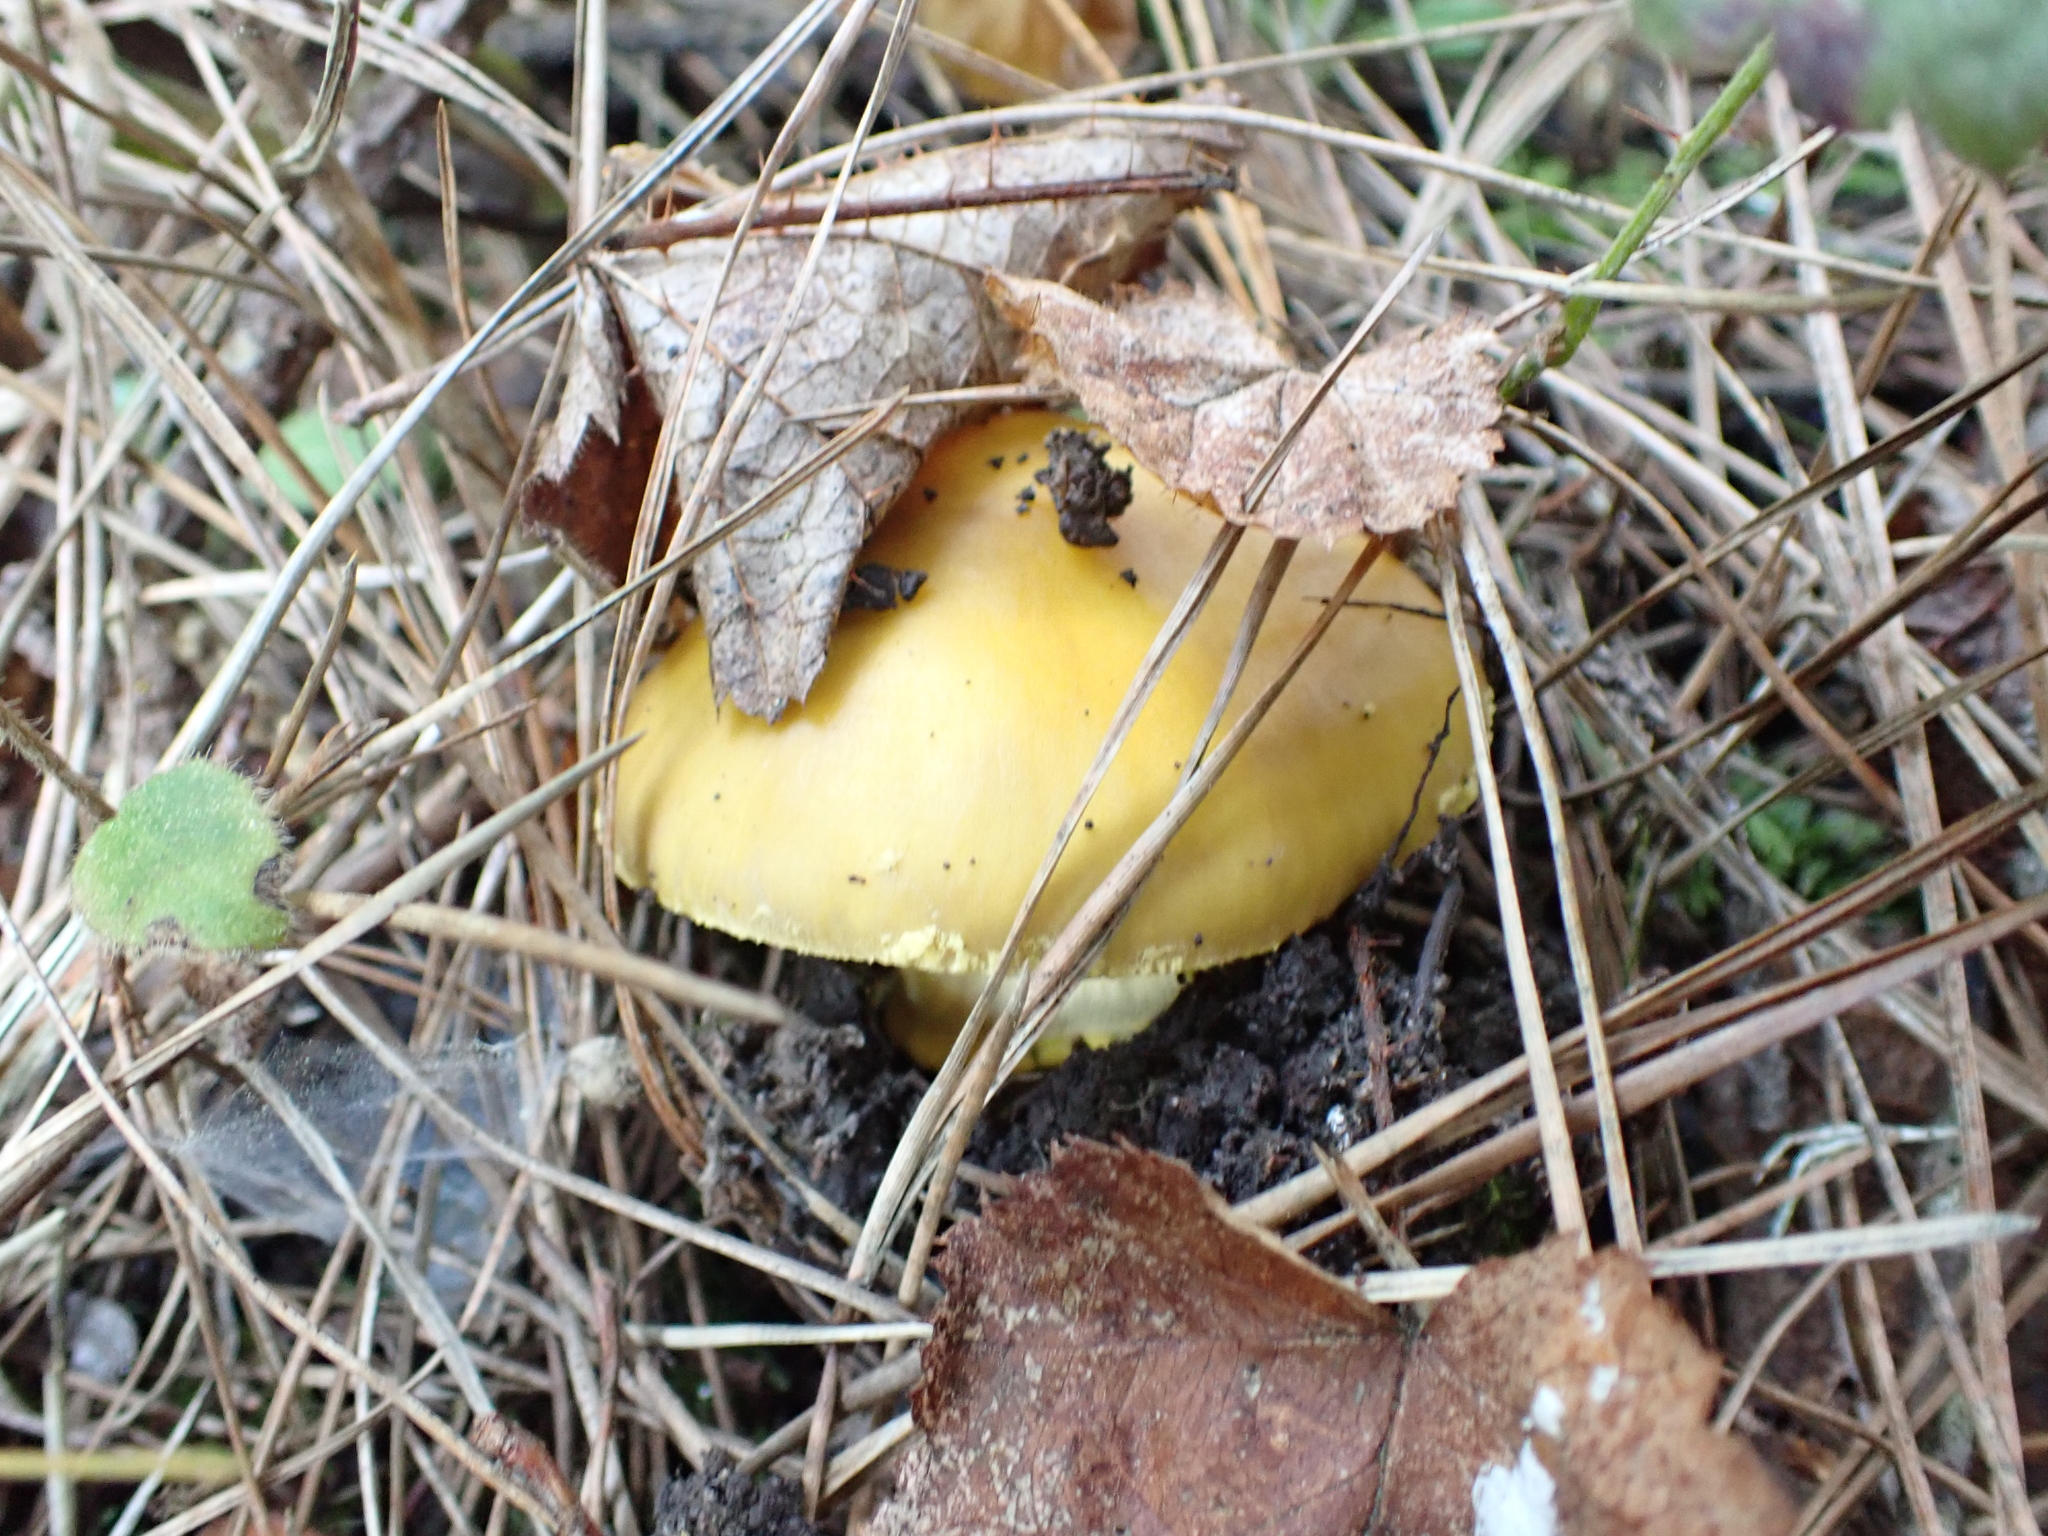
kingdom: Fungi
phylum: Basidiomycota
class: Agaricomycetes
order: Agaricales
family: Amanitaceae
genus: Amanita
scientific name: Amanita augusta
